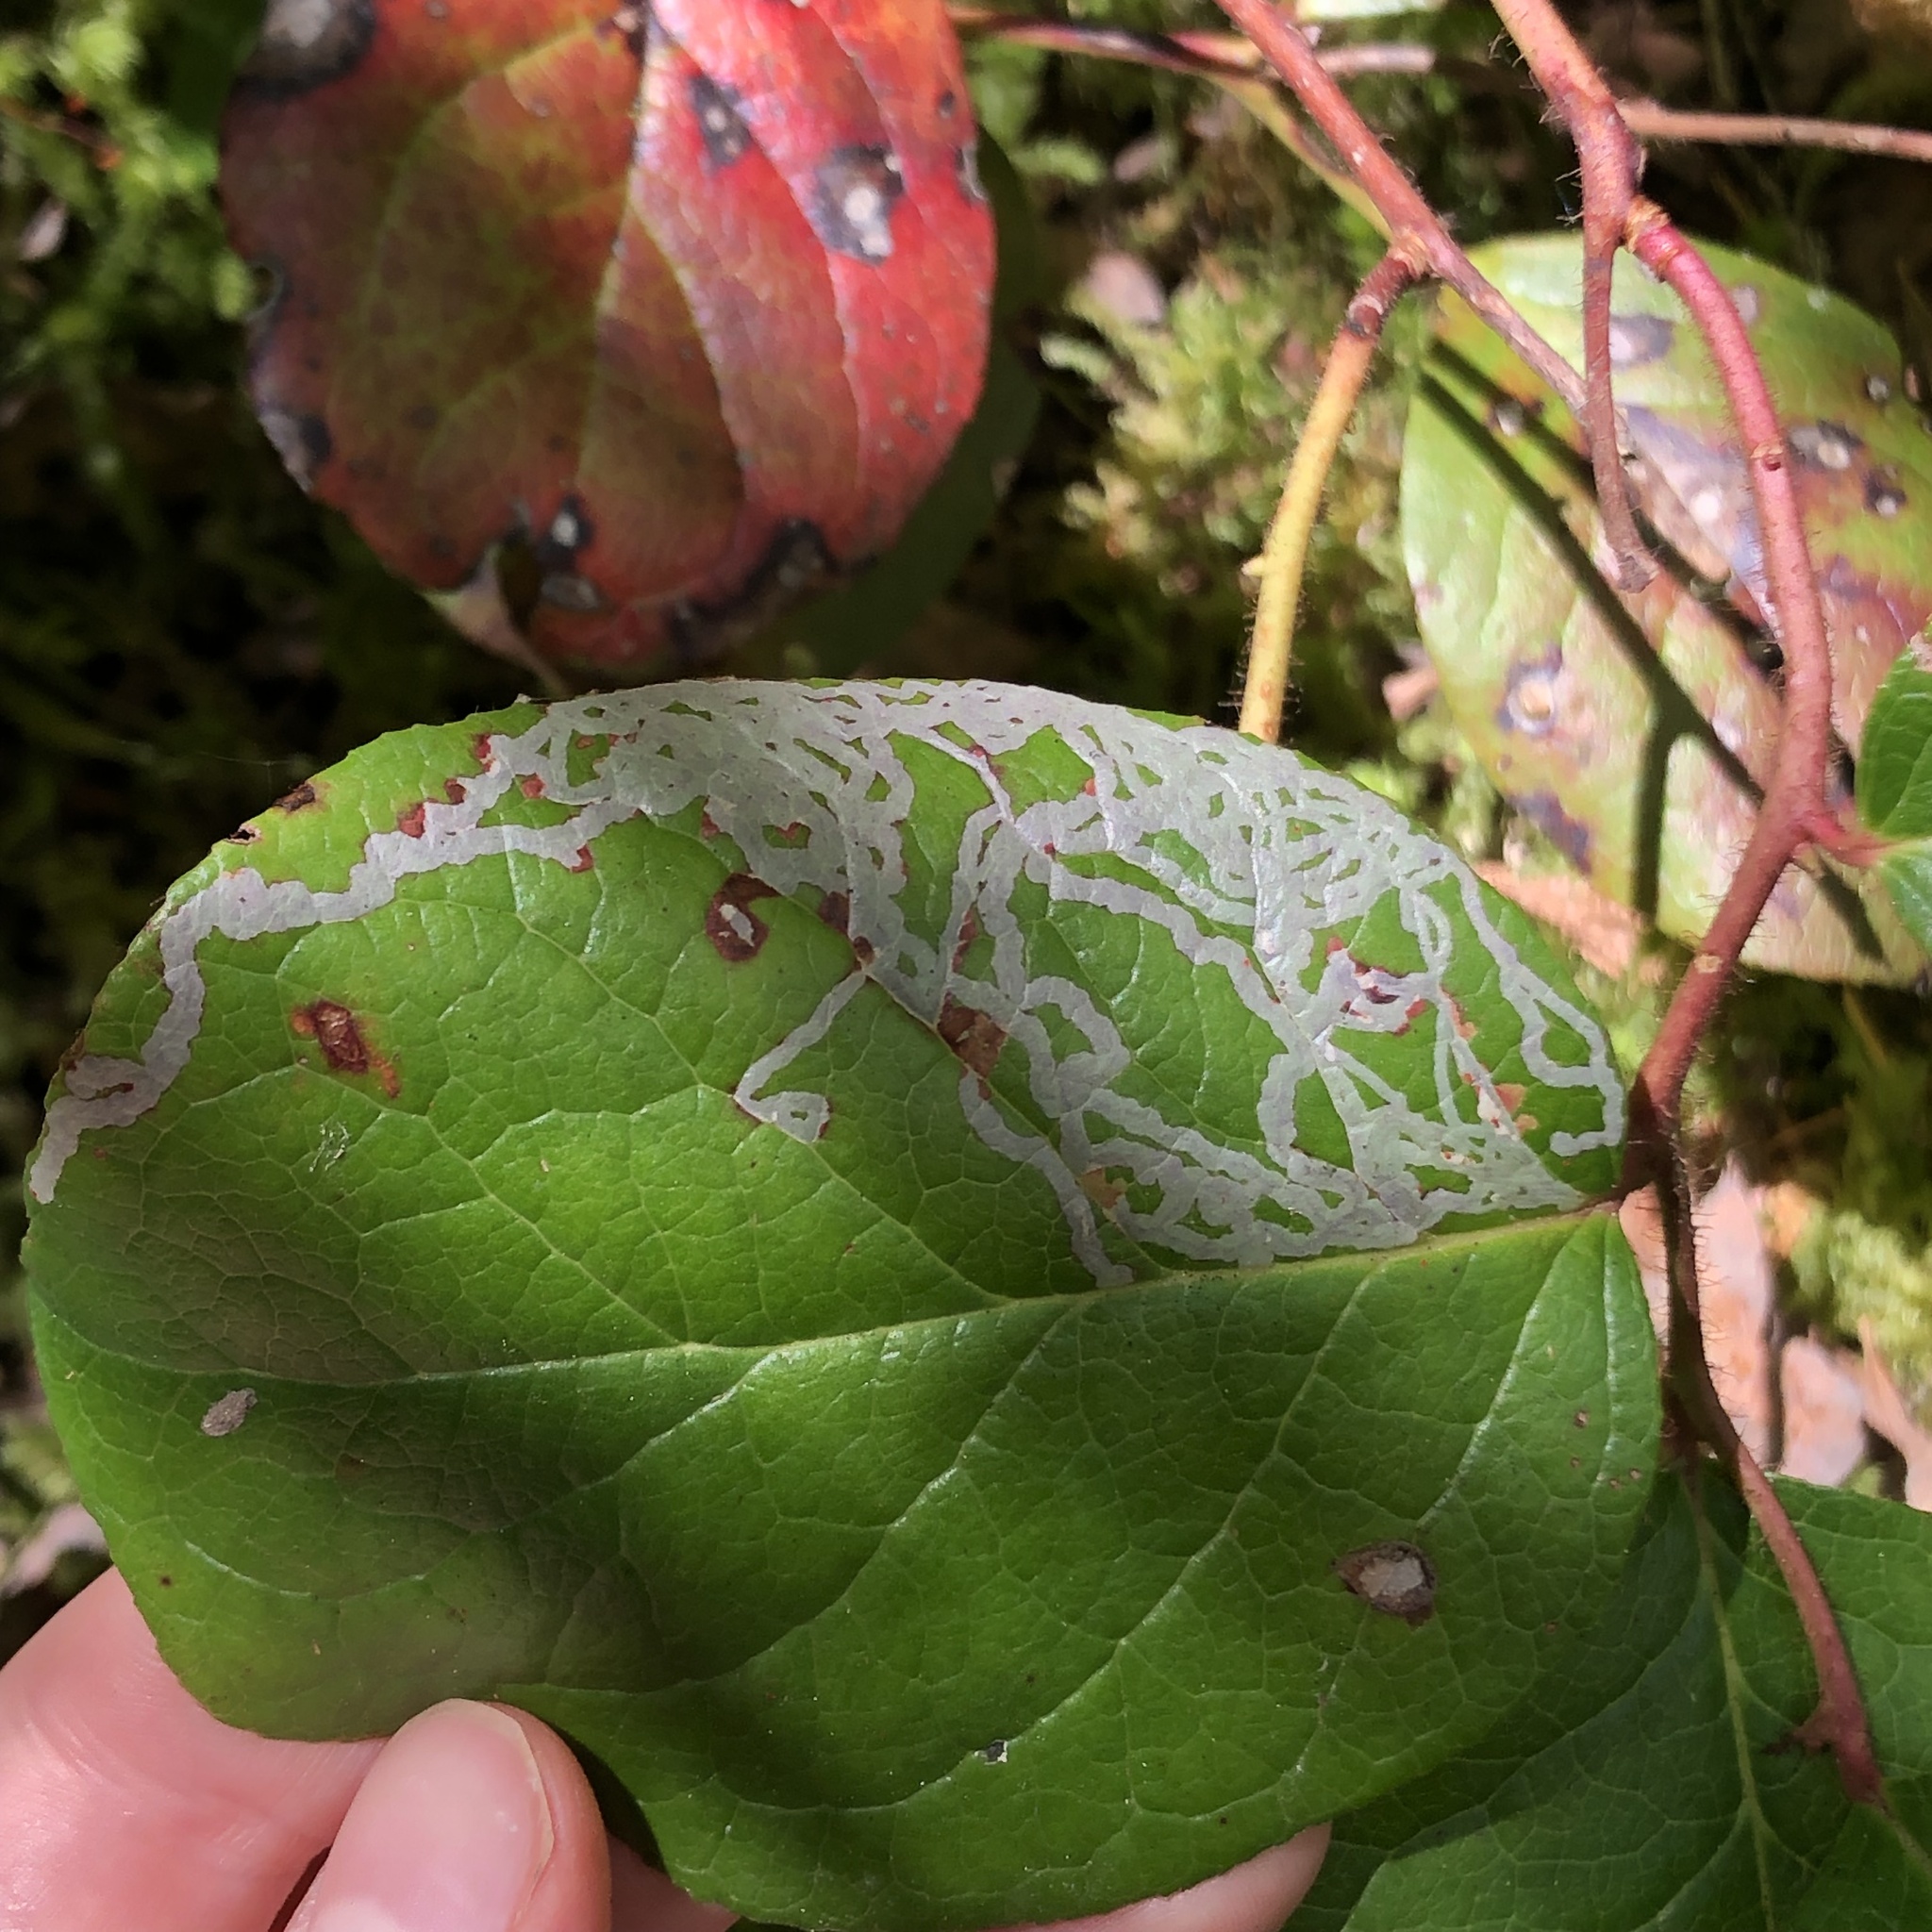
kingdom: Animalia
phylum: Arthropoda
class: Insecta
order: Lepidoptera
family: Gracillariidae
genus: Marmara
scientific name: Marmara arbutiella
